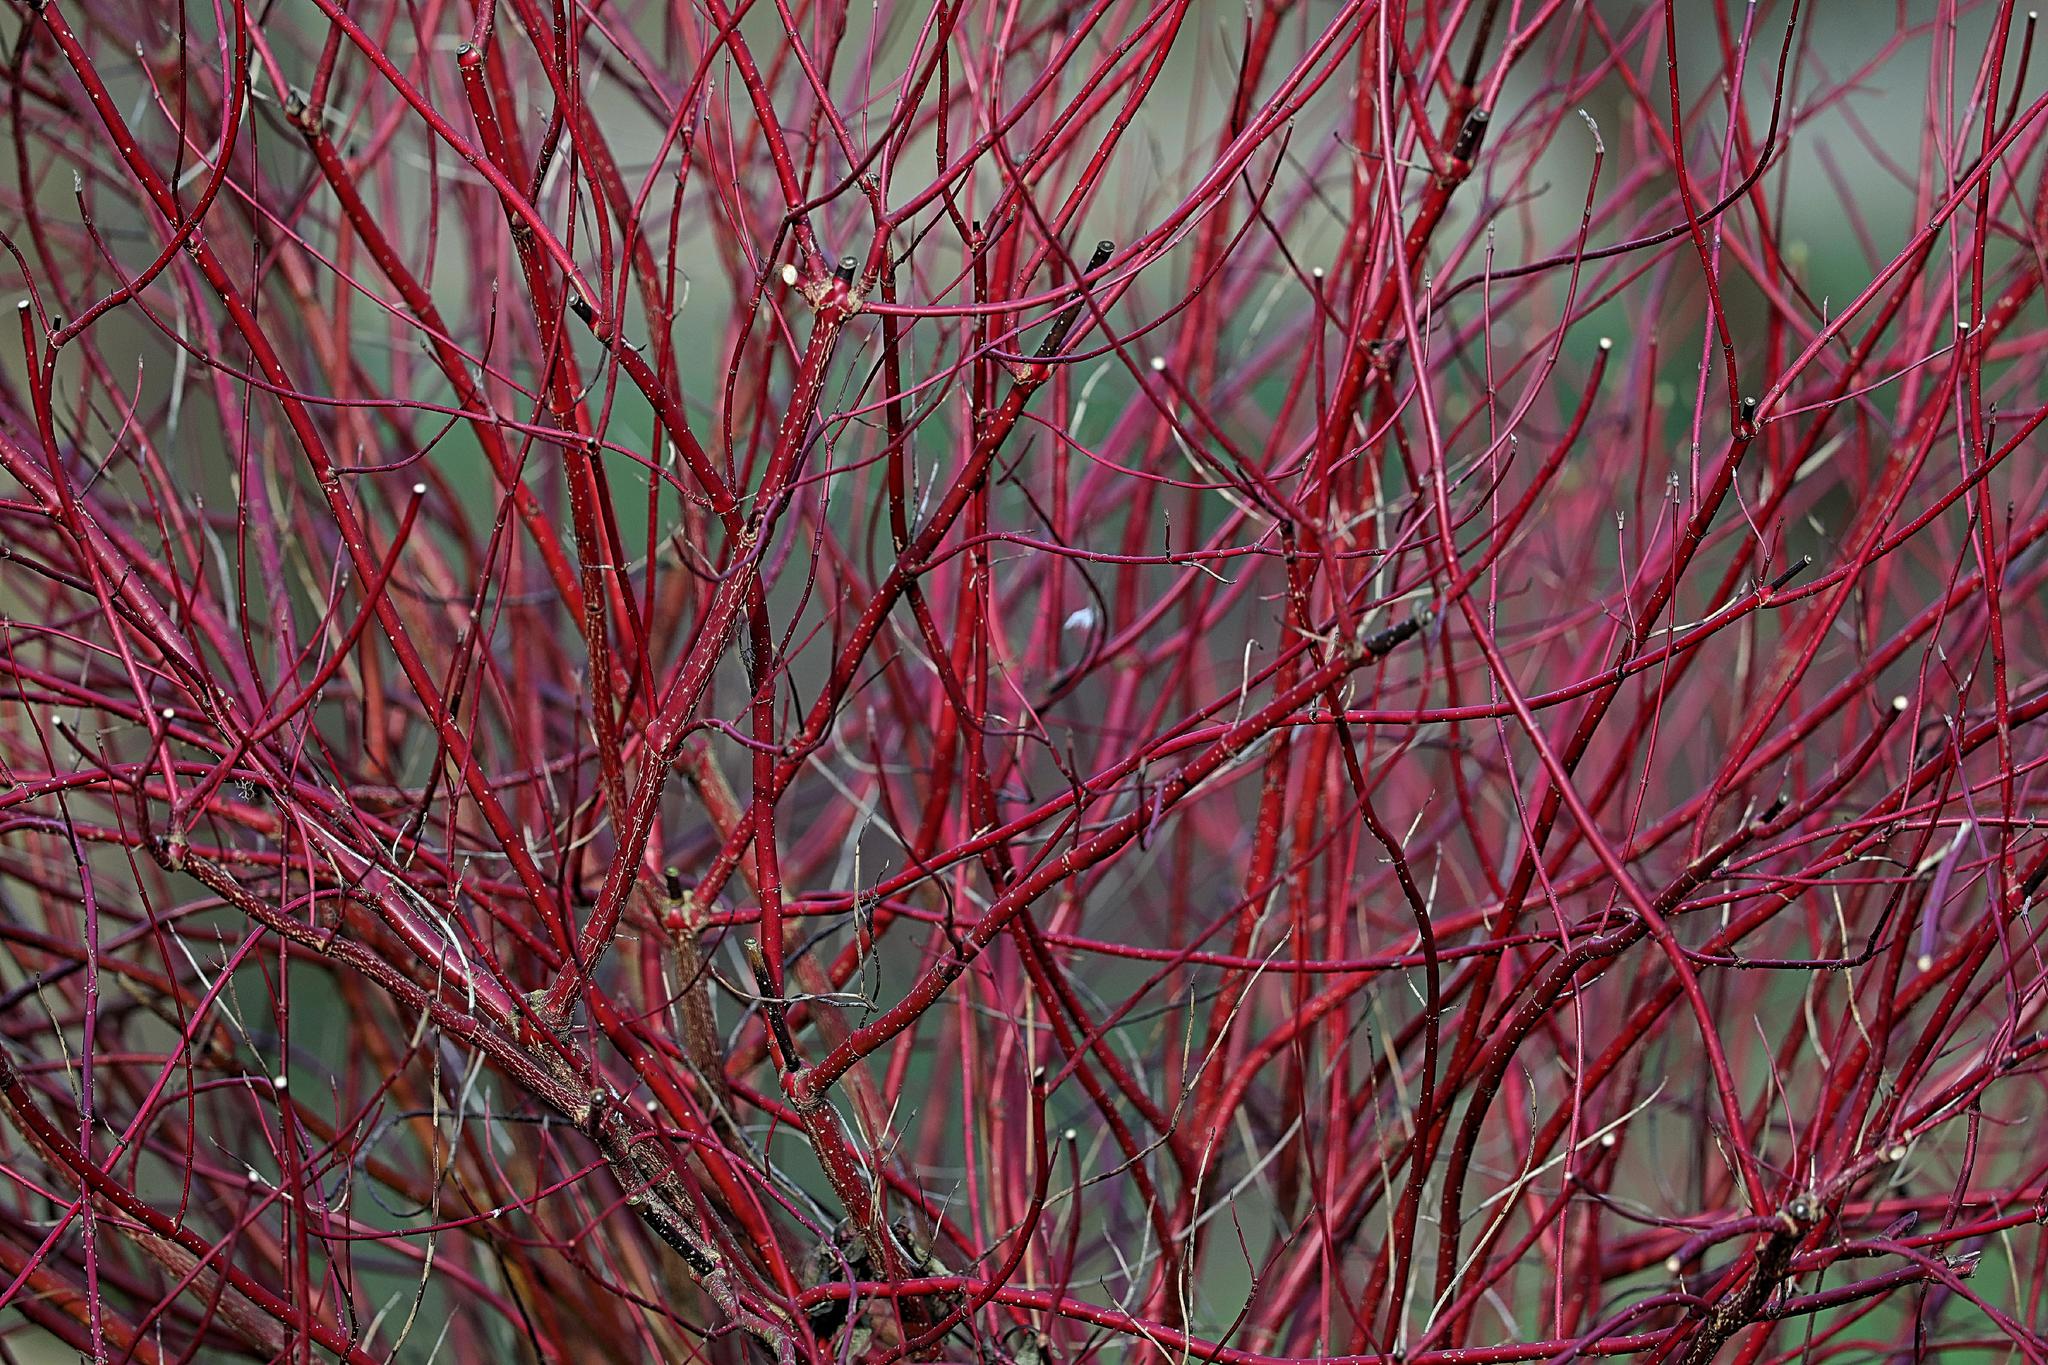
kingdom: Plantae
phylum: Tracheophyta
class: Magnoliopsida
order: Cornales
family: Cornaceae
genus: Cornus
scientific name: Cornus alba
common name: White dogwood
